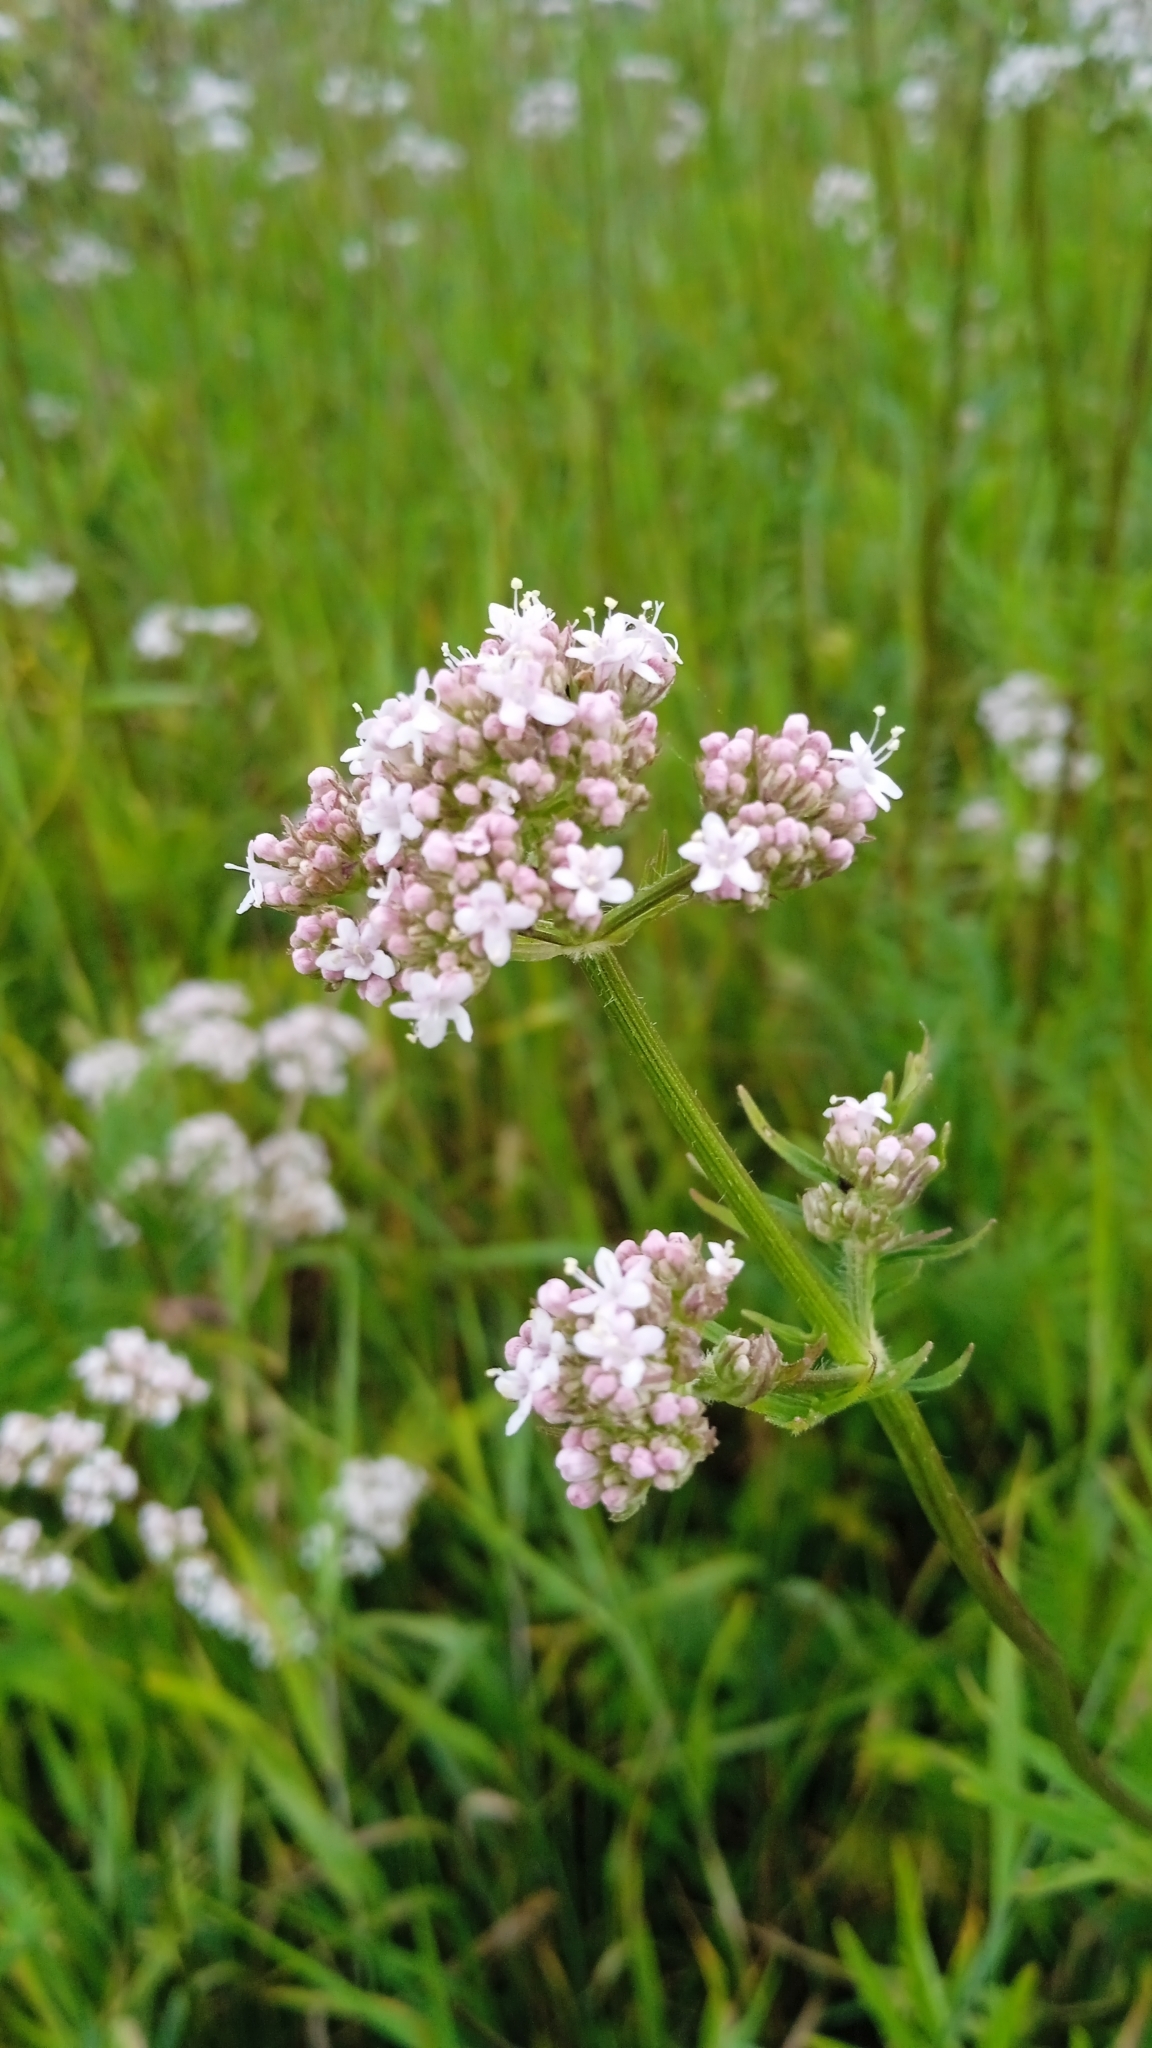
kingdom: Plantae
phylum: Tracheophyta
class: Magnoliopsida
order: Dipsacales
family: Caprifoliaceae
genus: Valeriana
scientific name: Valeriana officinalis
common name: Common valerian
